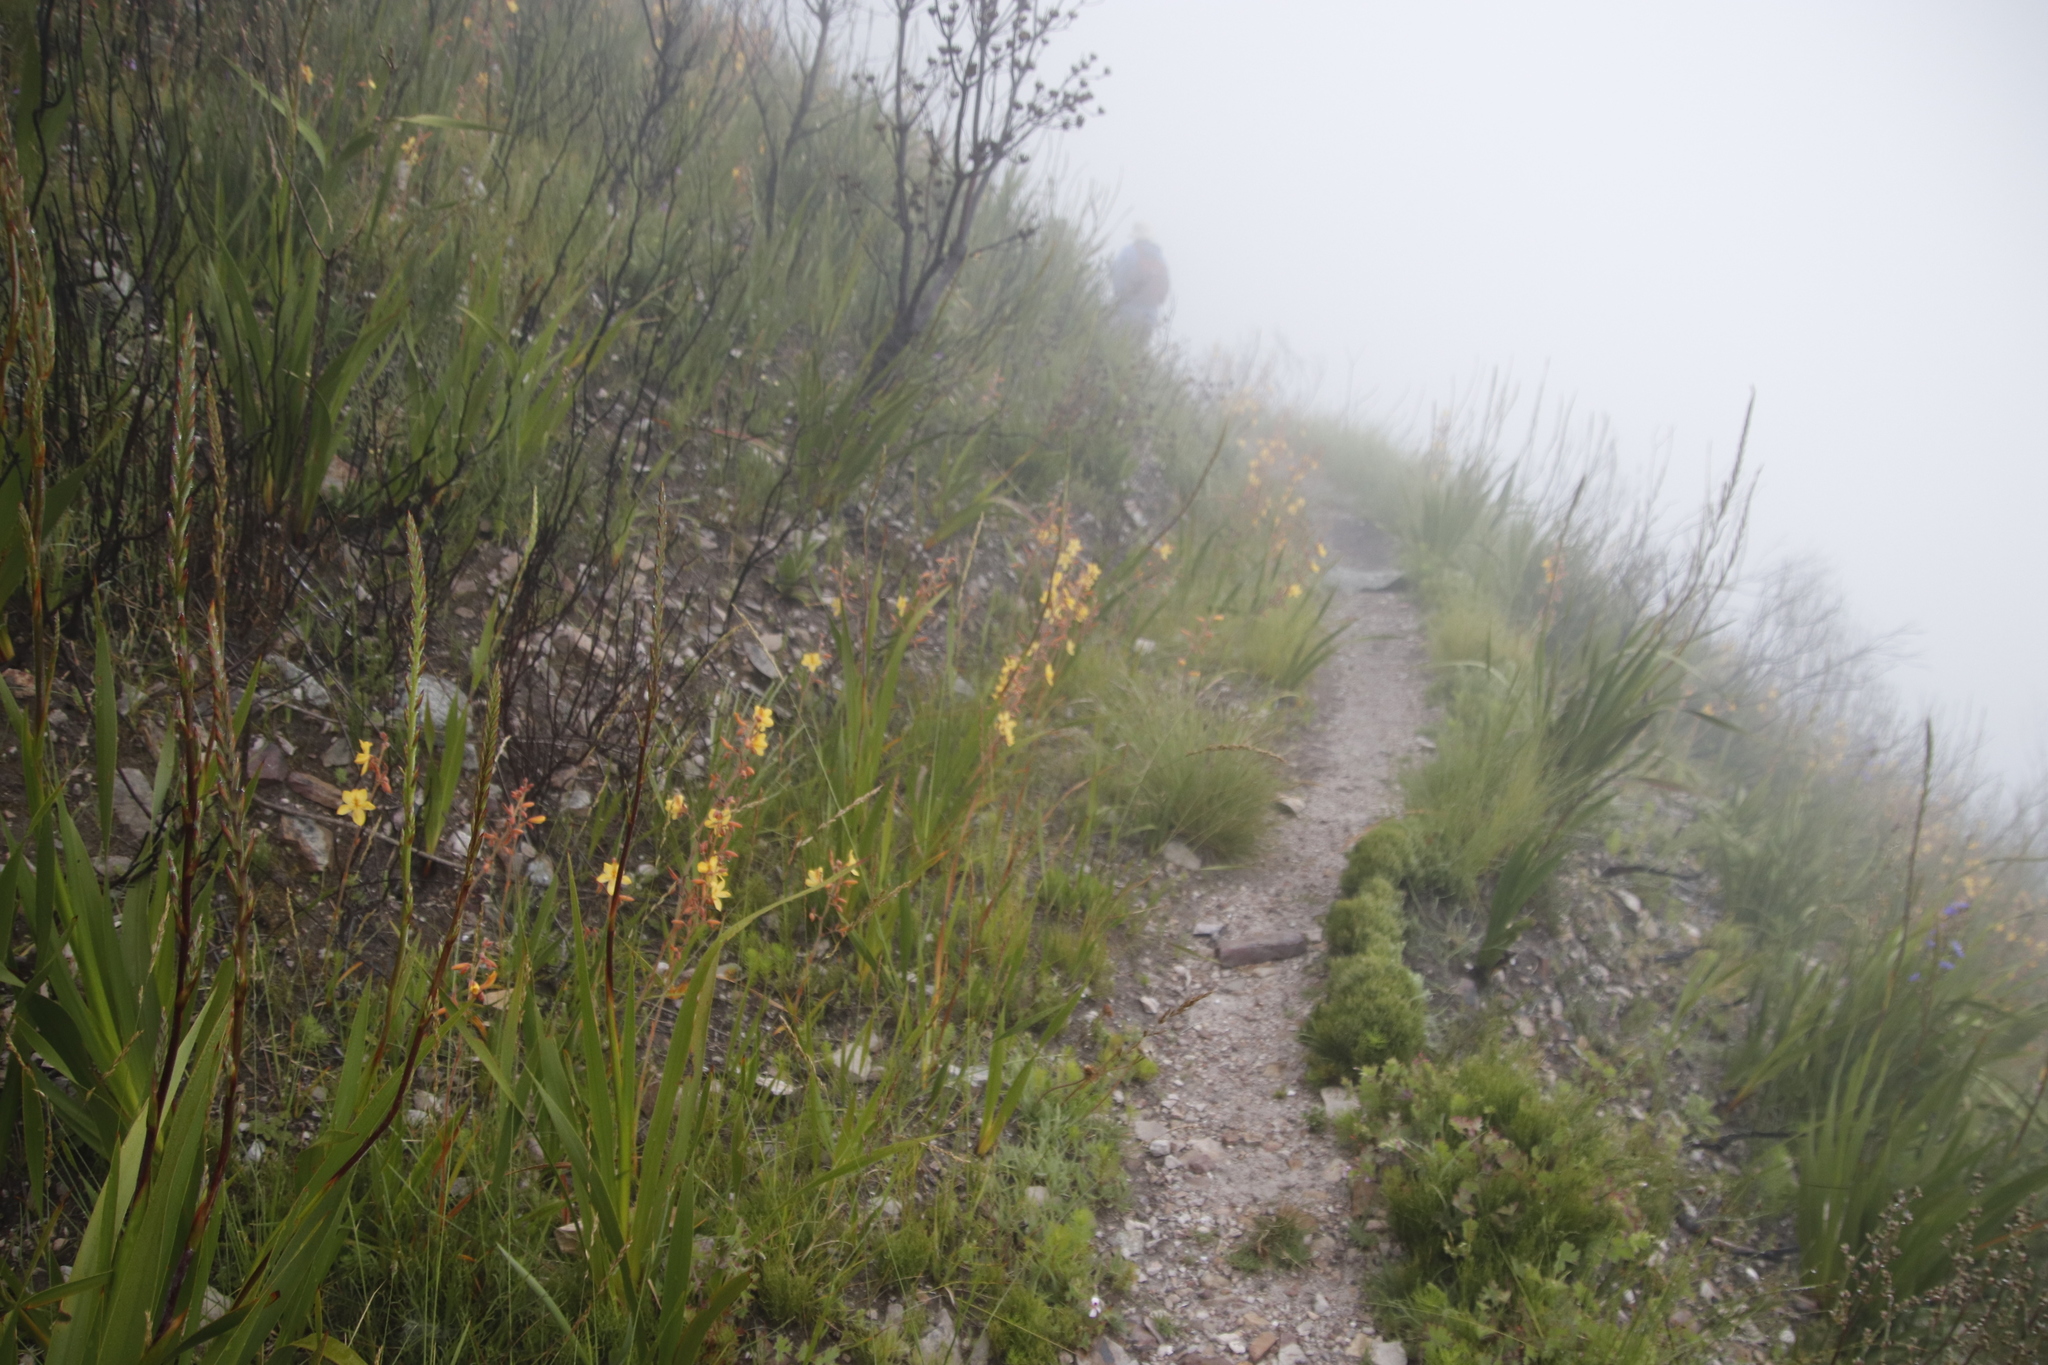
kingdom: Plantae
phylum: Tracheophyta
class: Liliopsida
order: Commelinales
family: Haemodoraceae
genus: Wachendorfia
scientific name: Wachendorfia paniculata
